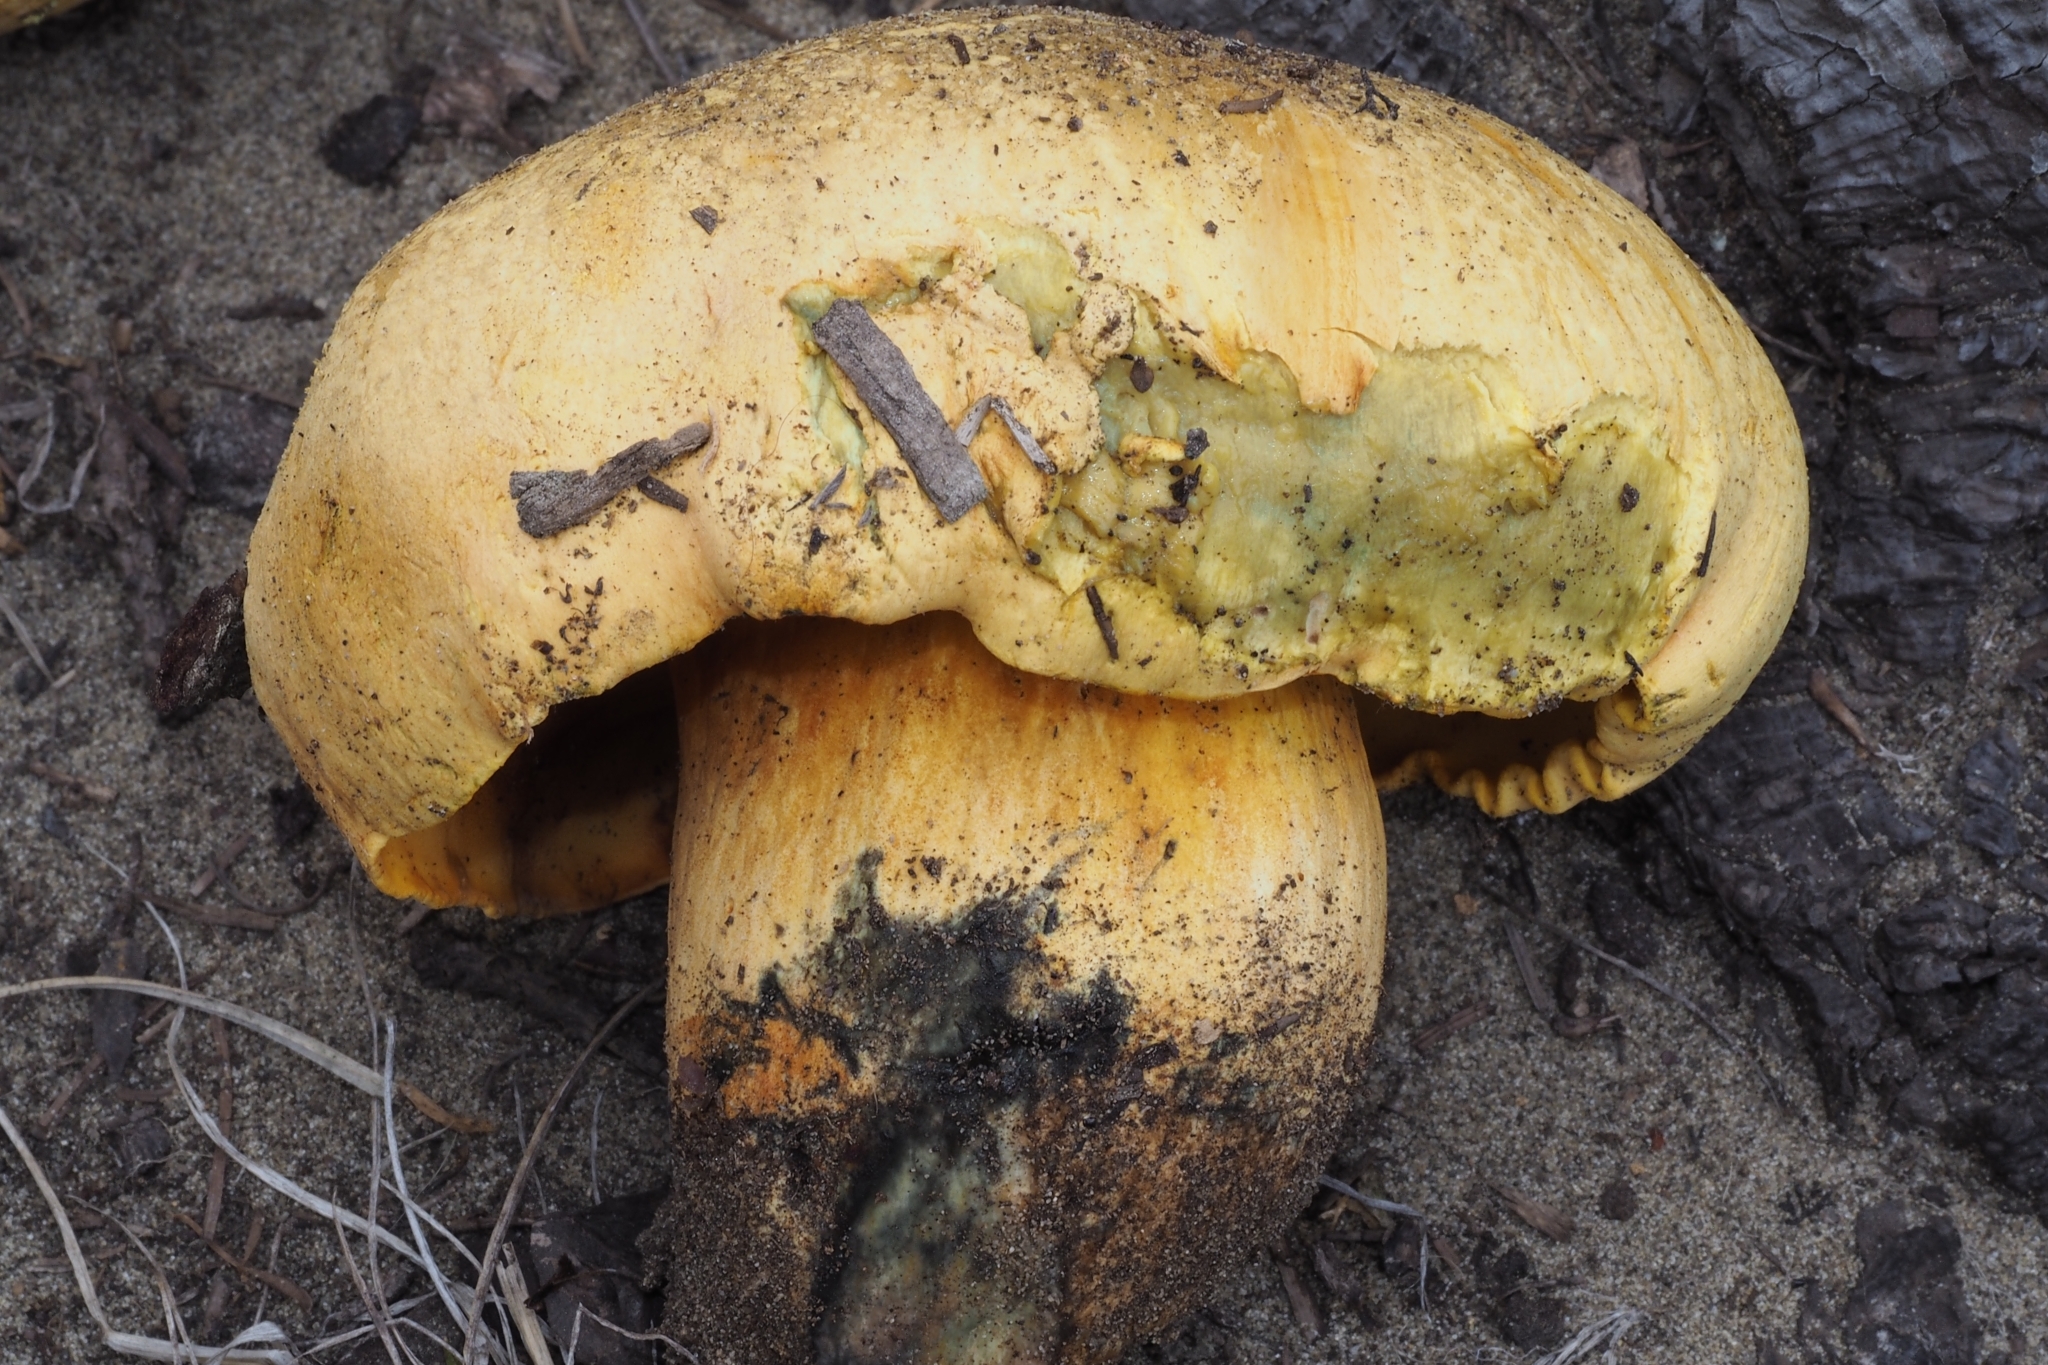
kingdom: Fungi
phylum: Basidiomycota
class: Agaricomycetes
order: Boletales
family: Boletaceae
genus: Chalciporus
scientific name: Chalciporus sphaerocephalus
